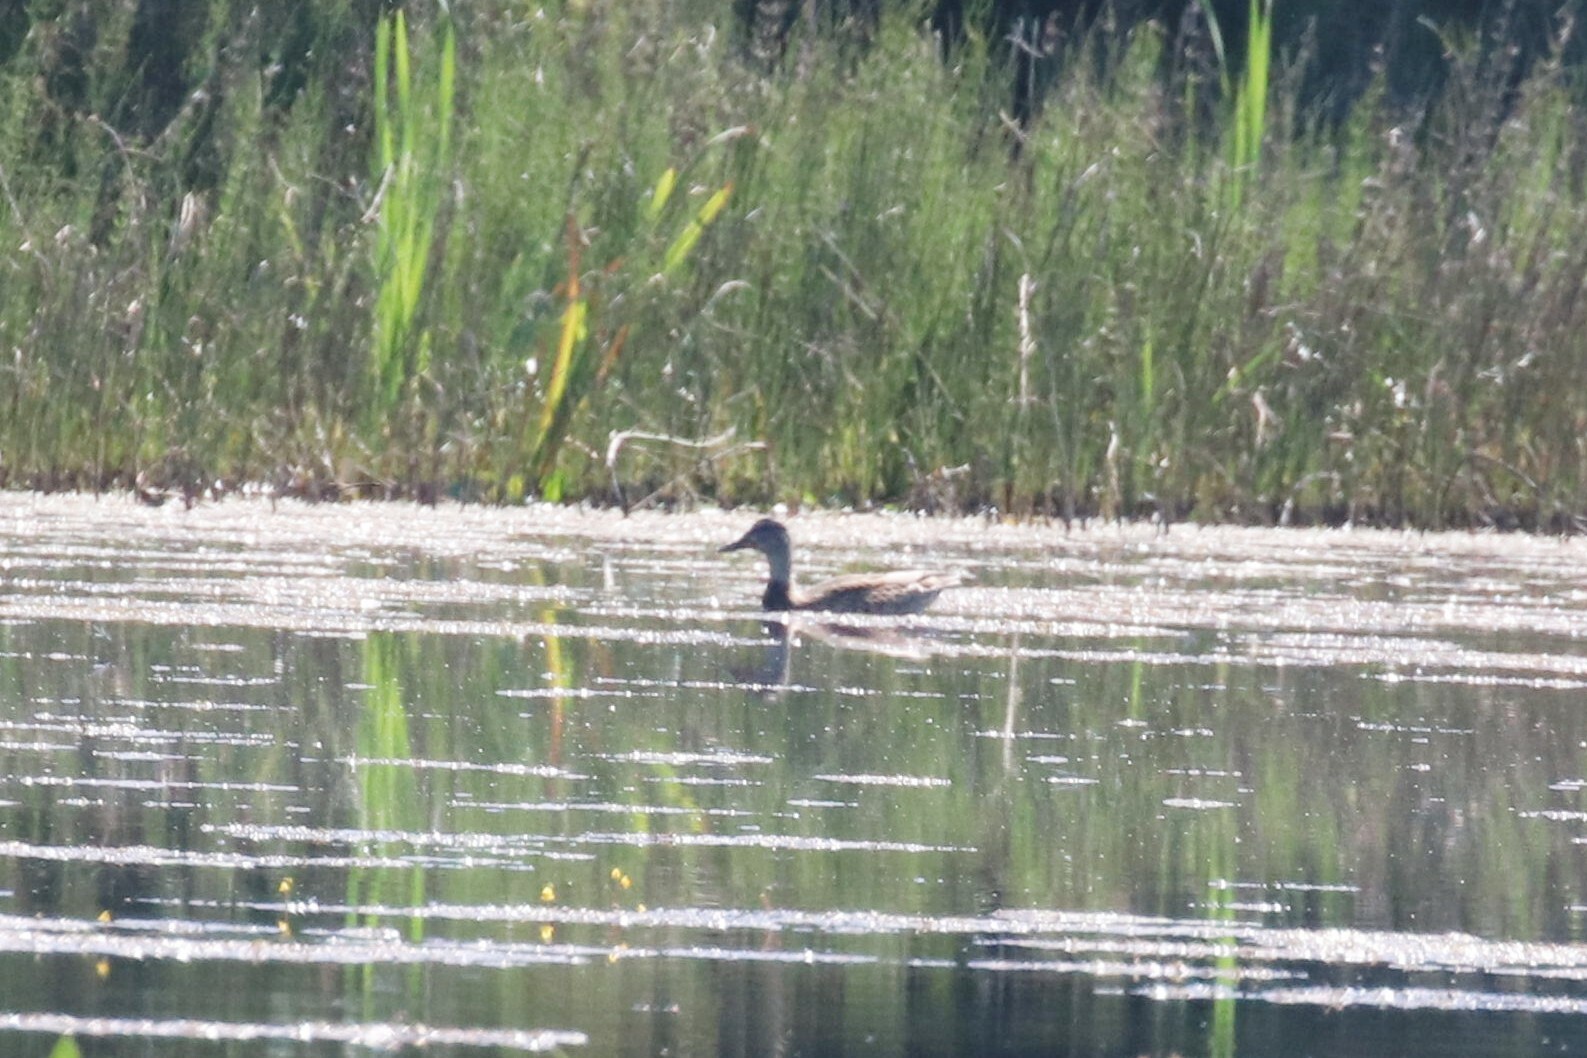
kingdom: Animalia
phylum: Chordata
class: Aves
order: Anseriformes
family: Anatidae
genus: Mareca
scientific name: Mareca strepera
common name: Gadwall
